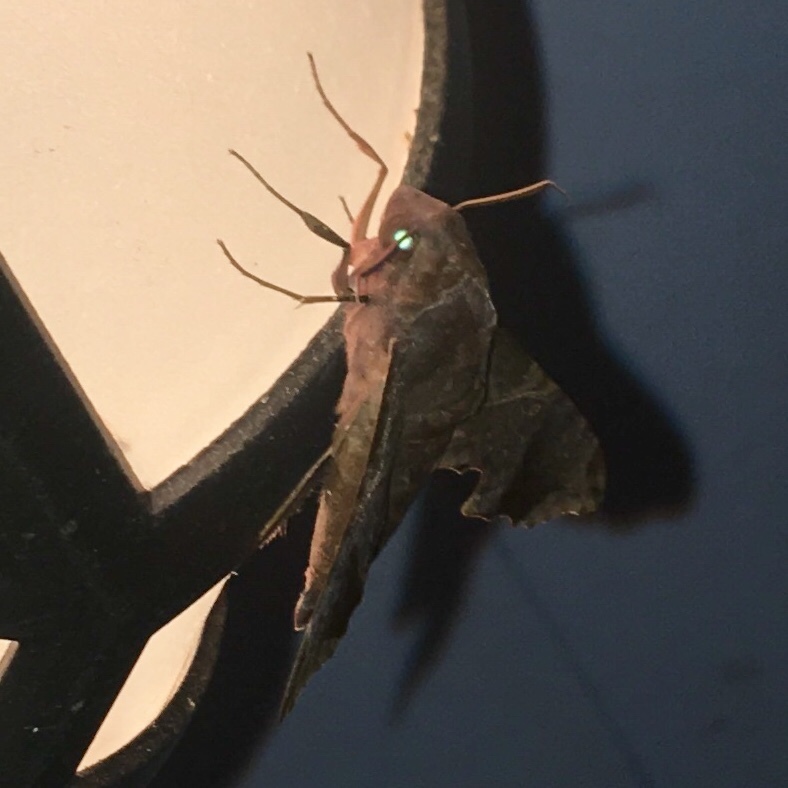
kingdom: Animalia
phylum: Arthropoda
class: Insecta
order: Lepidoptera
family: Sphingidae
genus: Enyo
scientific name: Enyo lugubris
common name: Mournful sphinx
